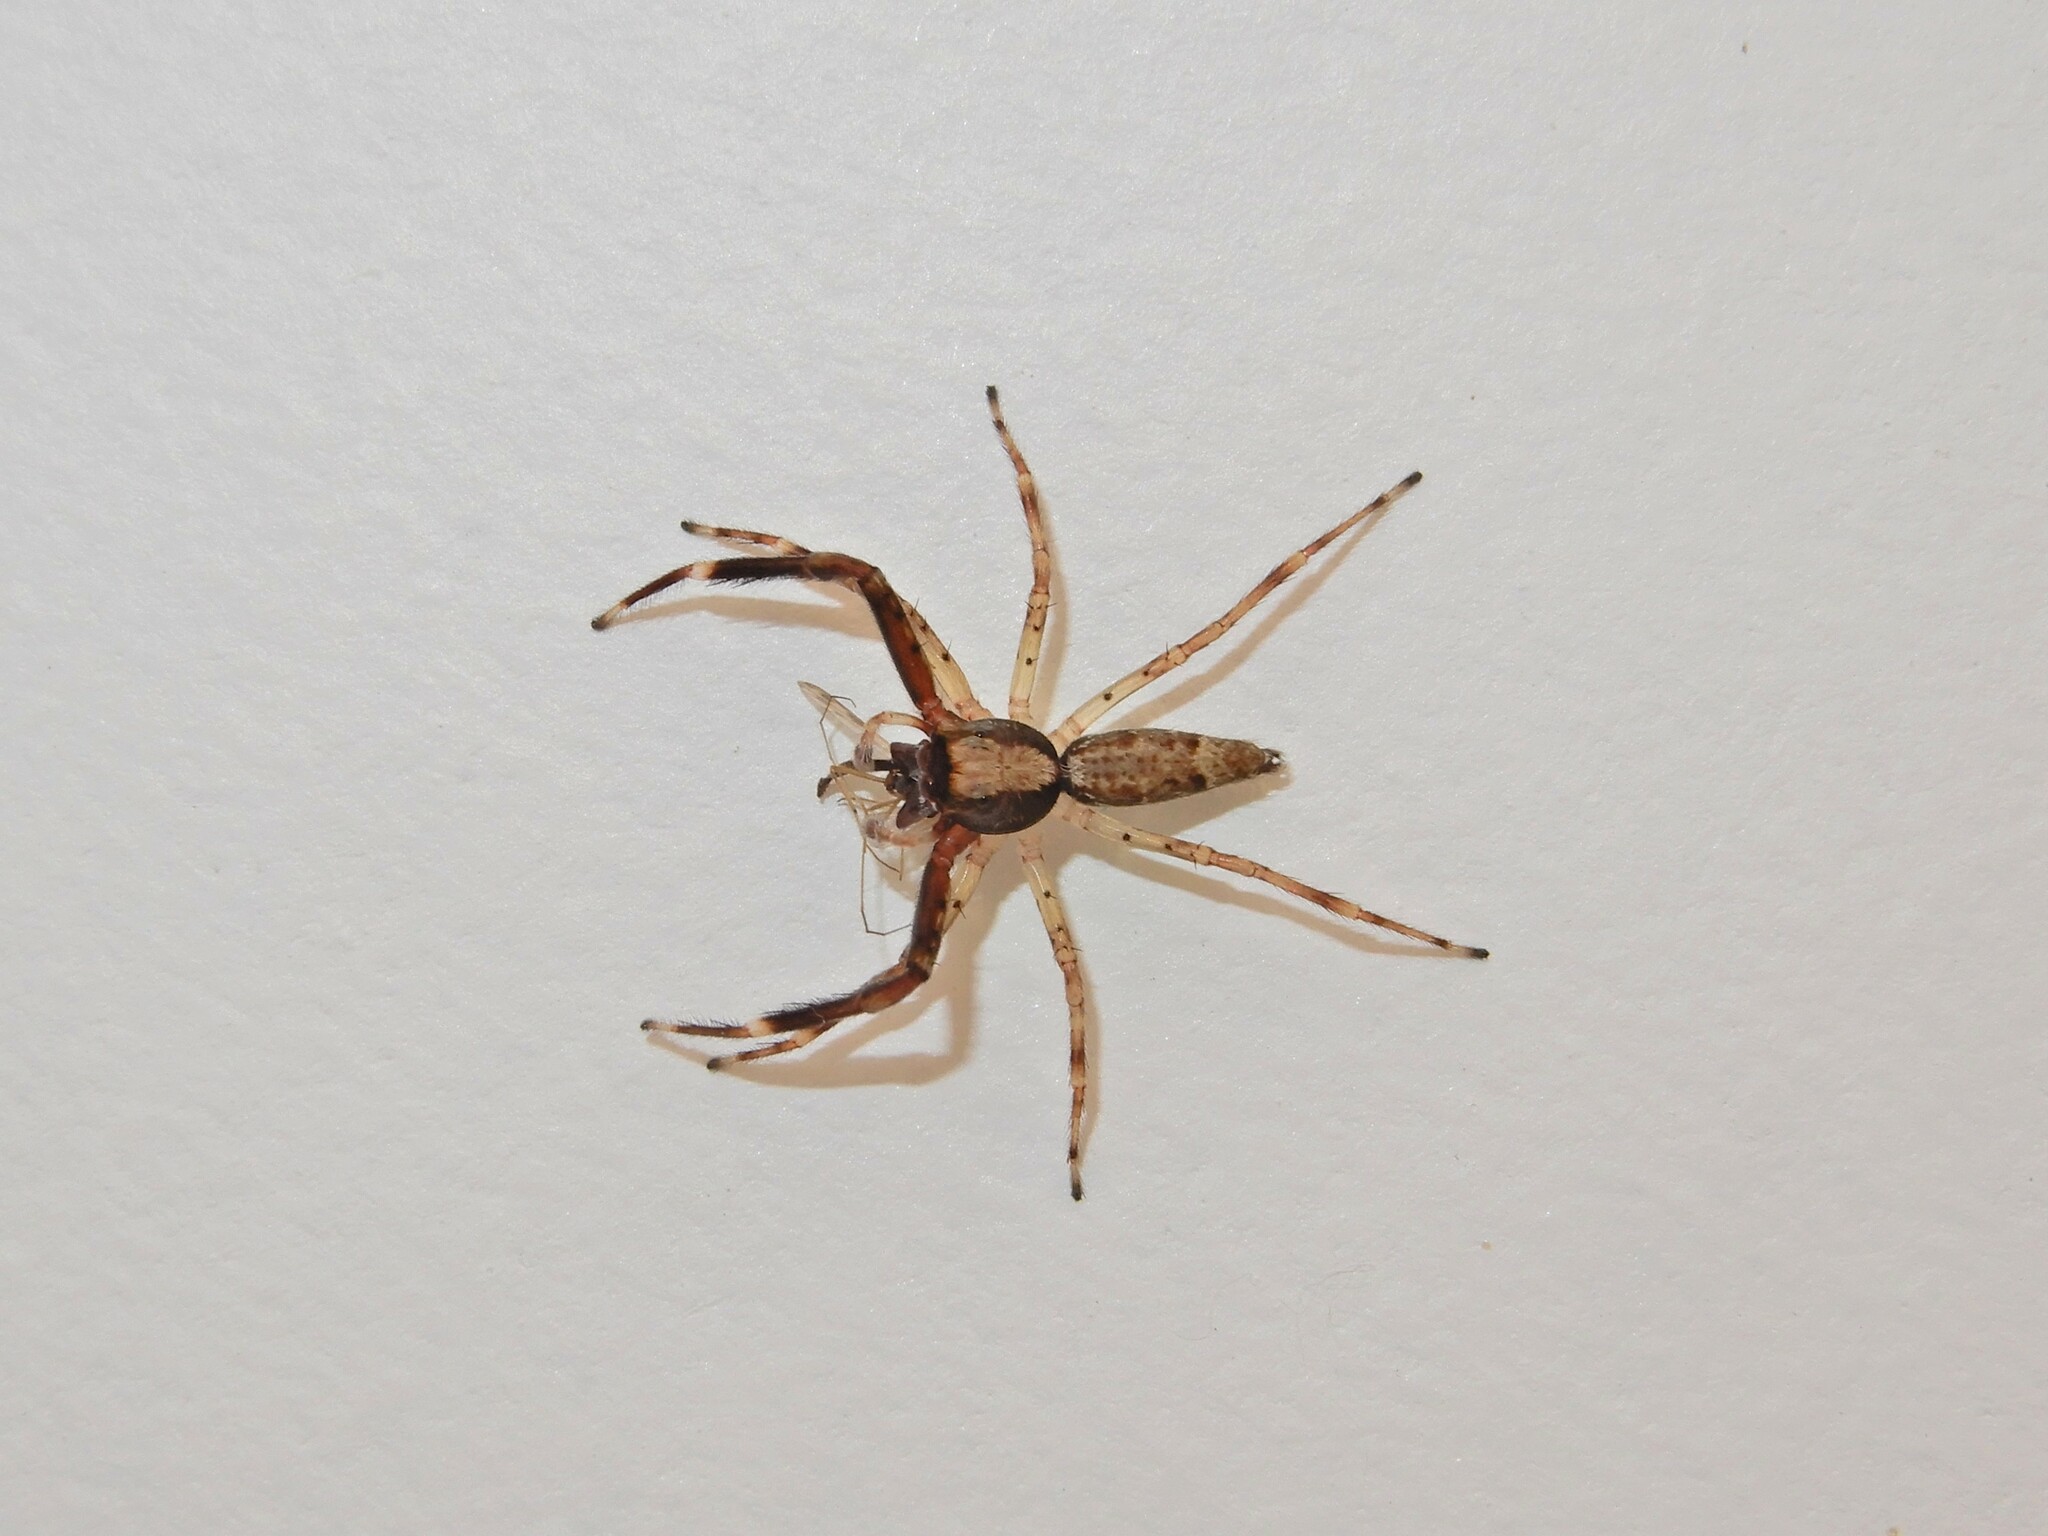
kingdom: Animalia
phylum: Arthropoda
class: Arachnida
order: Araneae
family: Salticidae
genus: Helpis
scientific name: Helpis minitabunda
